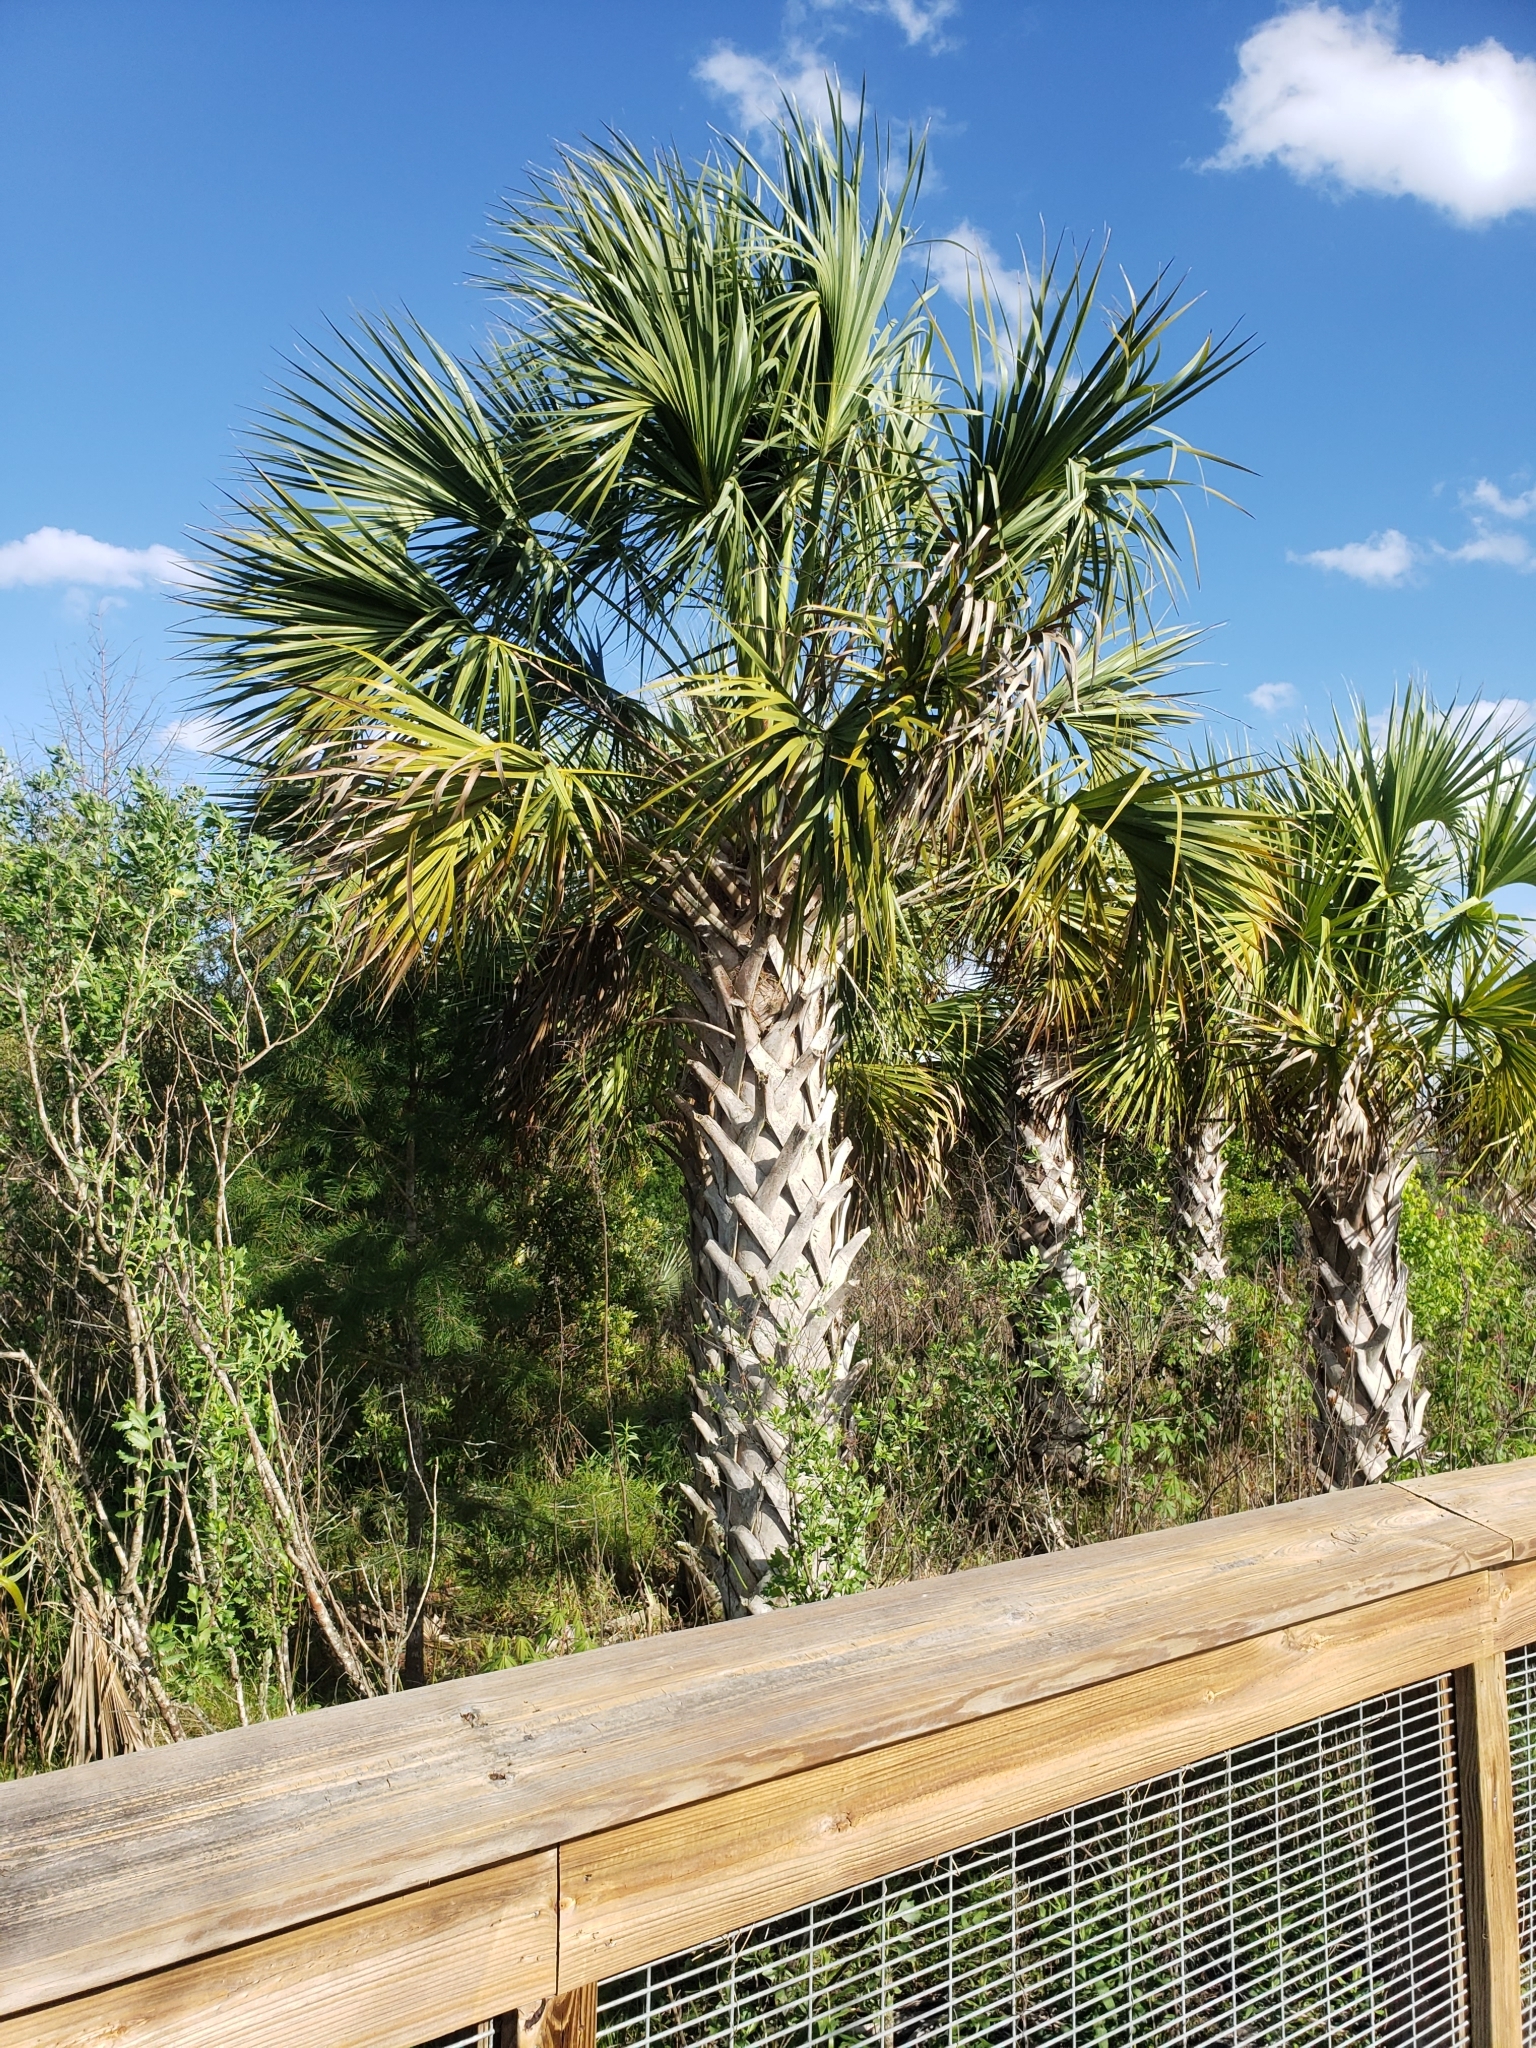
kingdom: Plantae
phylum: Tracheophyta
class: Liliopsida
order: Arecales
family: Arecaceae
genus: Sabal
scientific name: Sabal palmetto
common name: Blue palmetto
